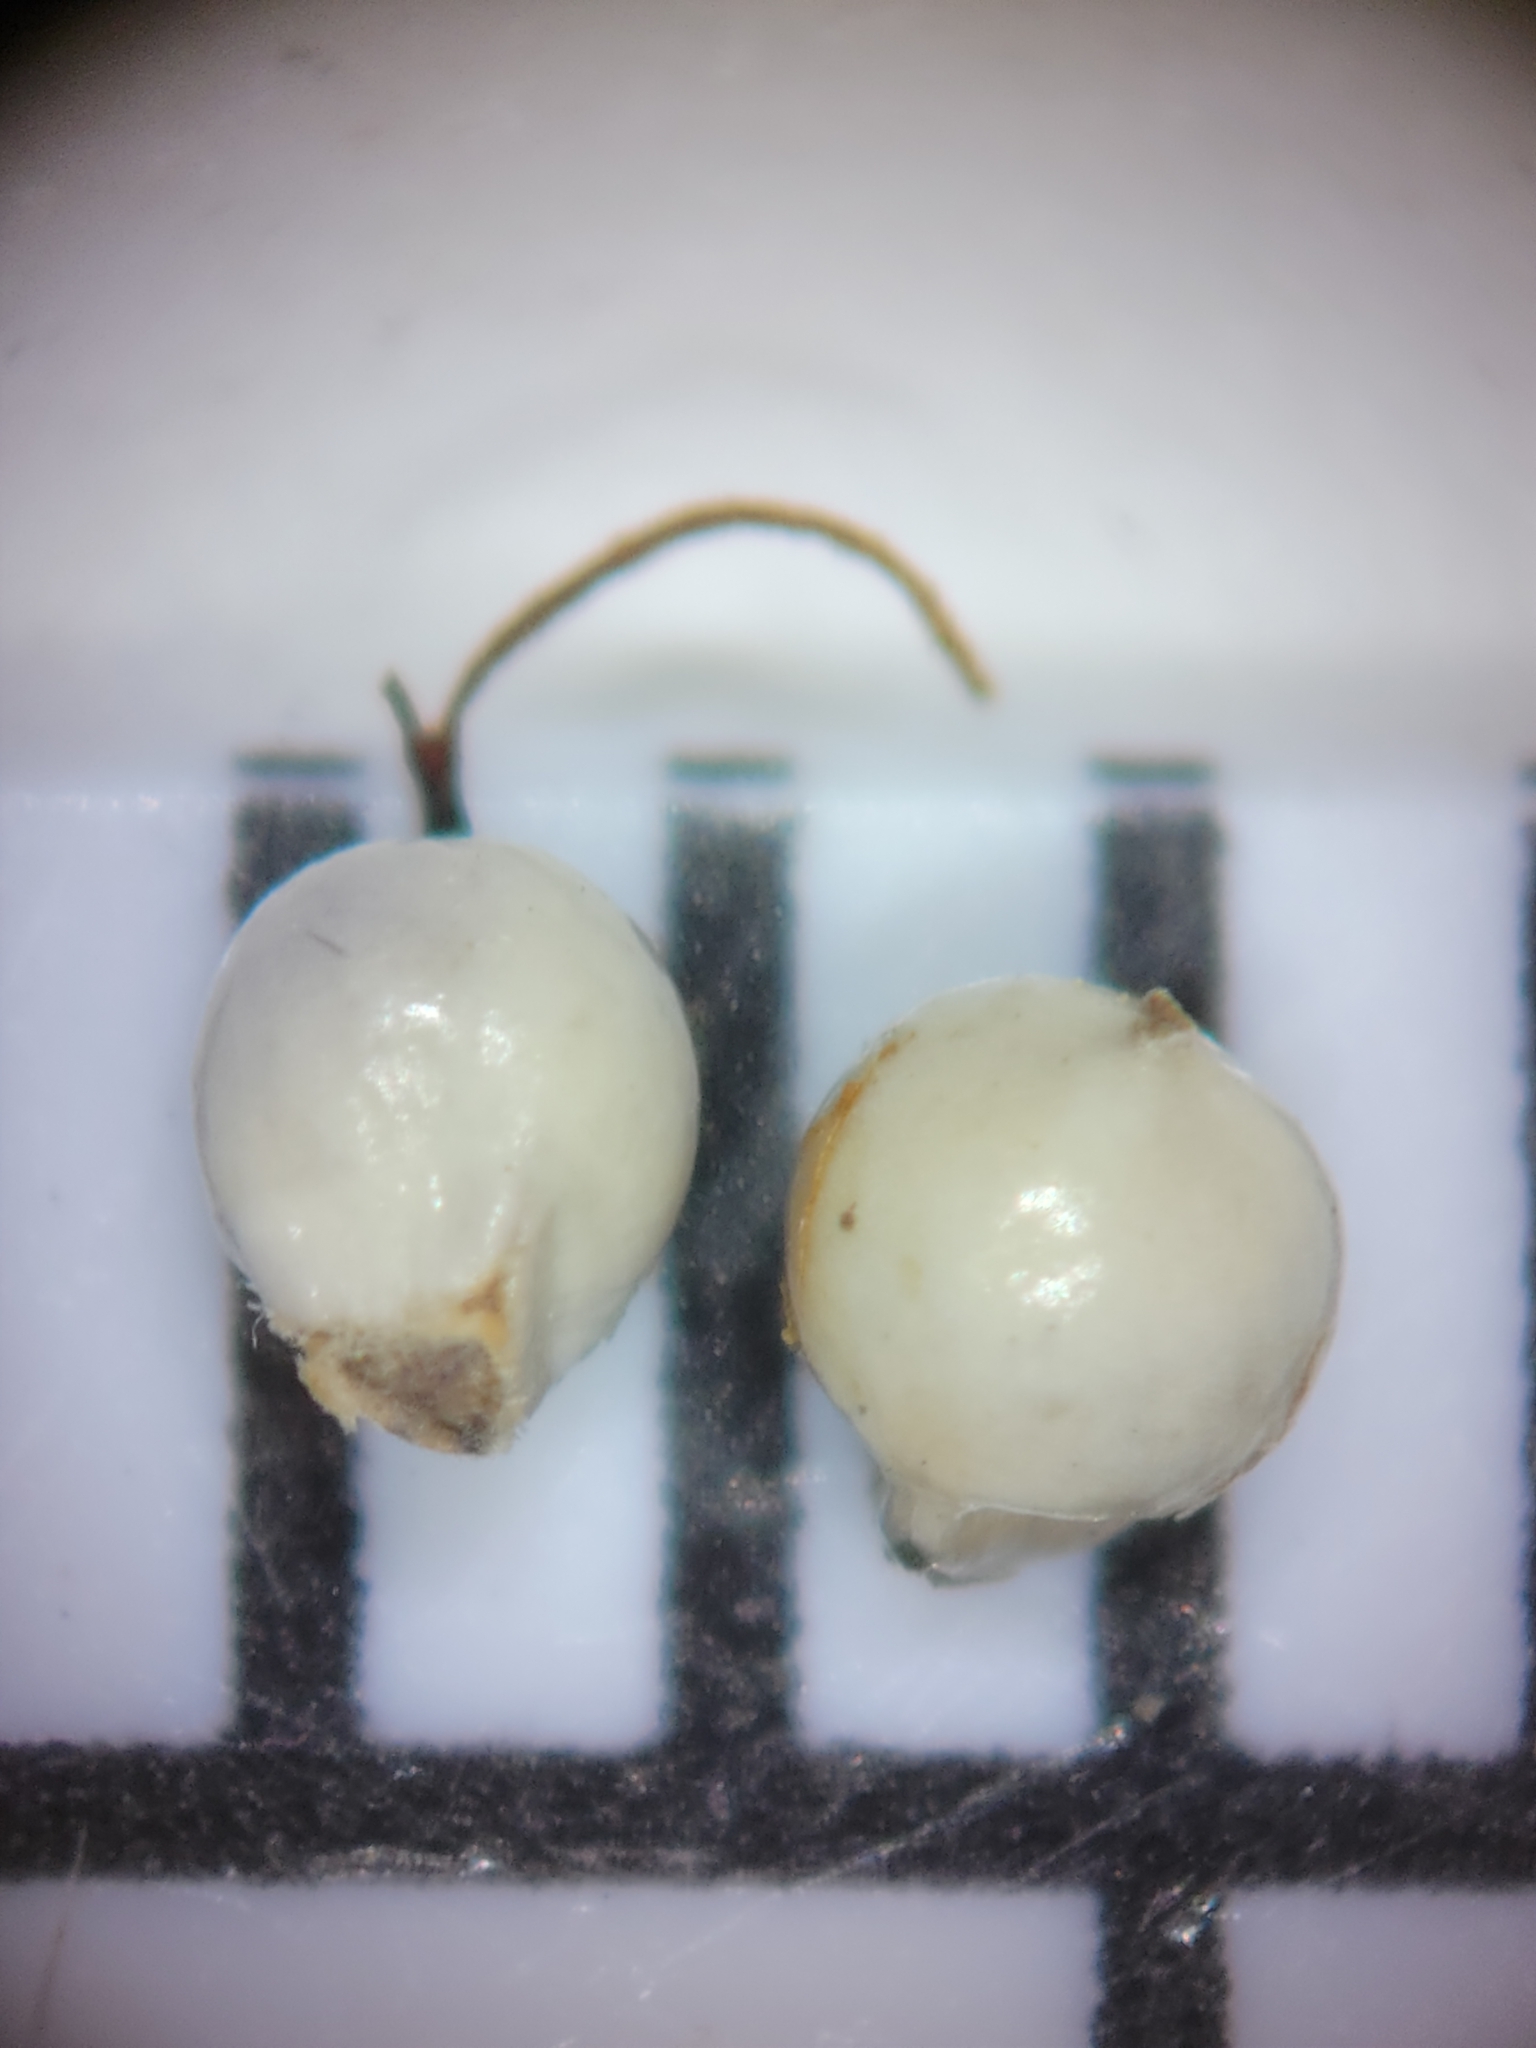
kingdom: Plantae
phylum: Tracheophyta
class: Liliopsida
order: Poales
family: Cyperaceae
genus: Scleria
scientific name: Scleria distans
